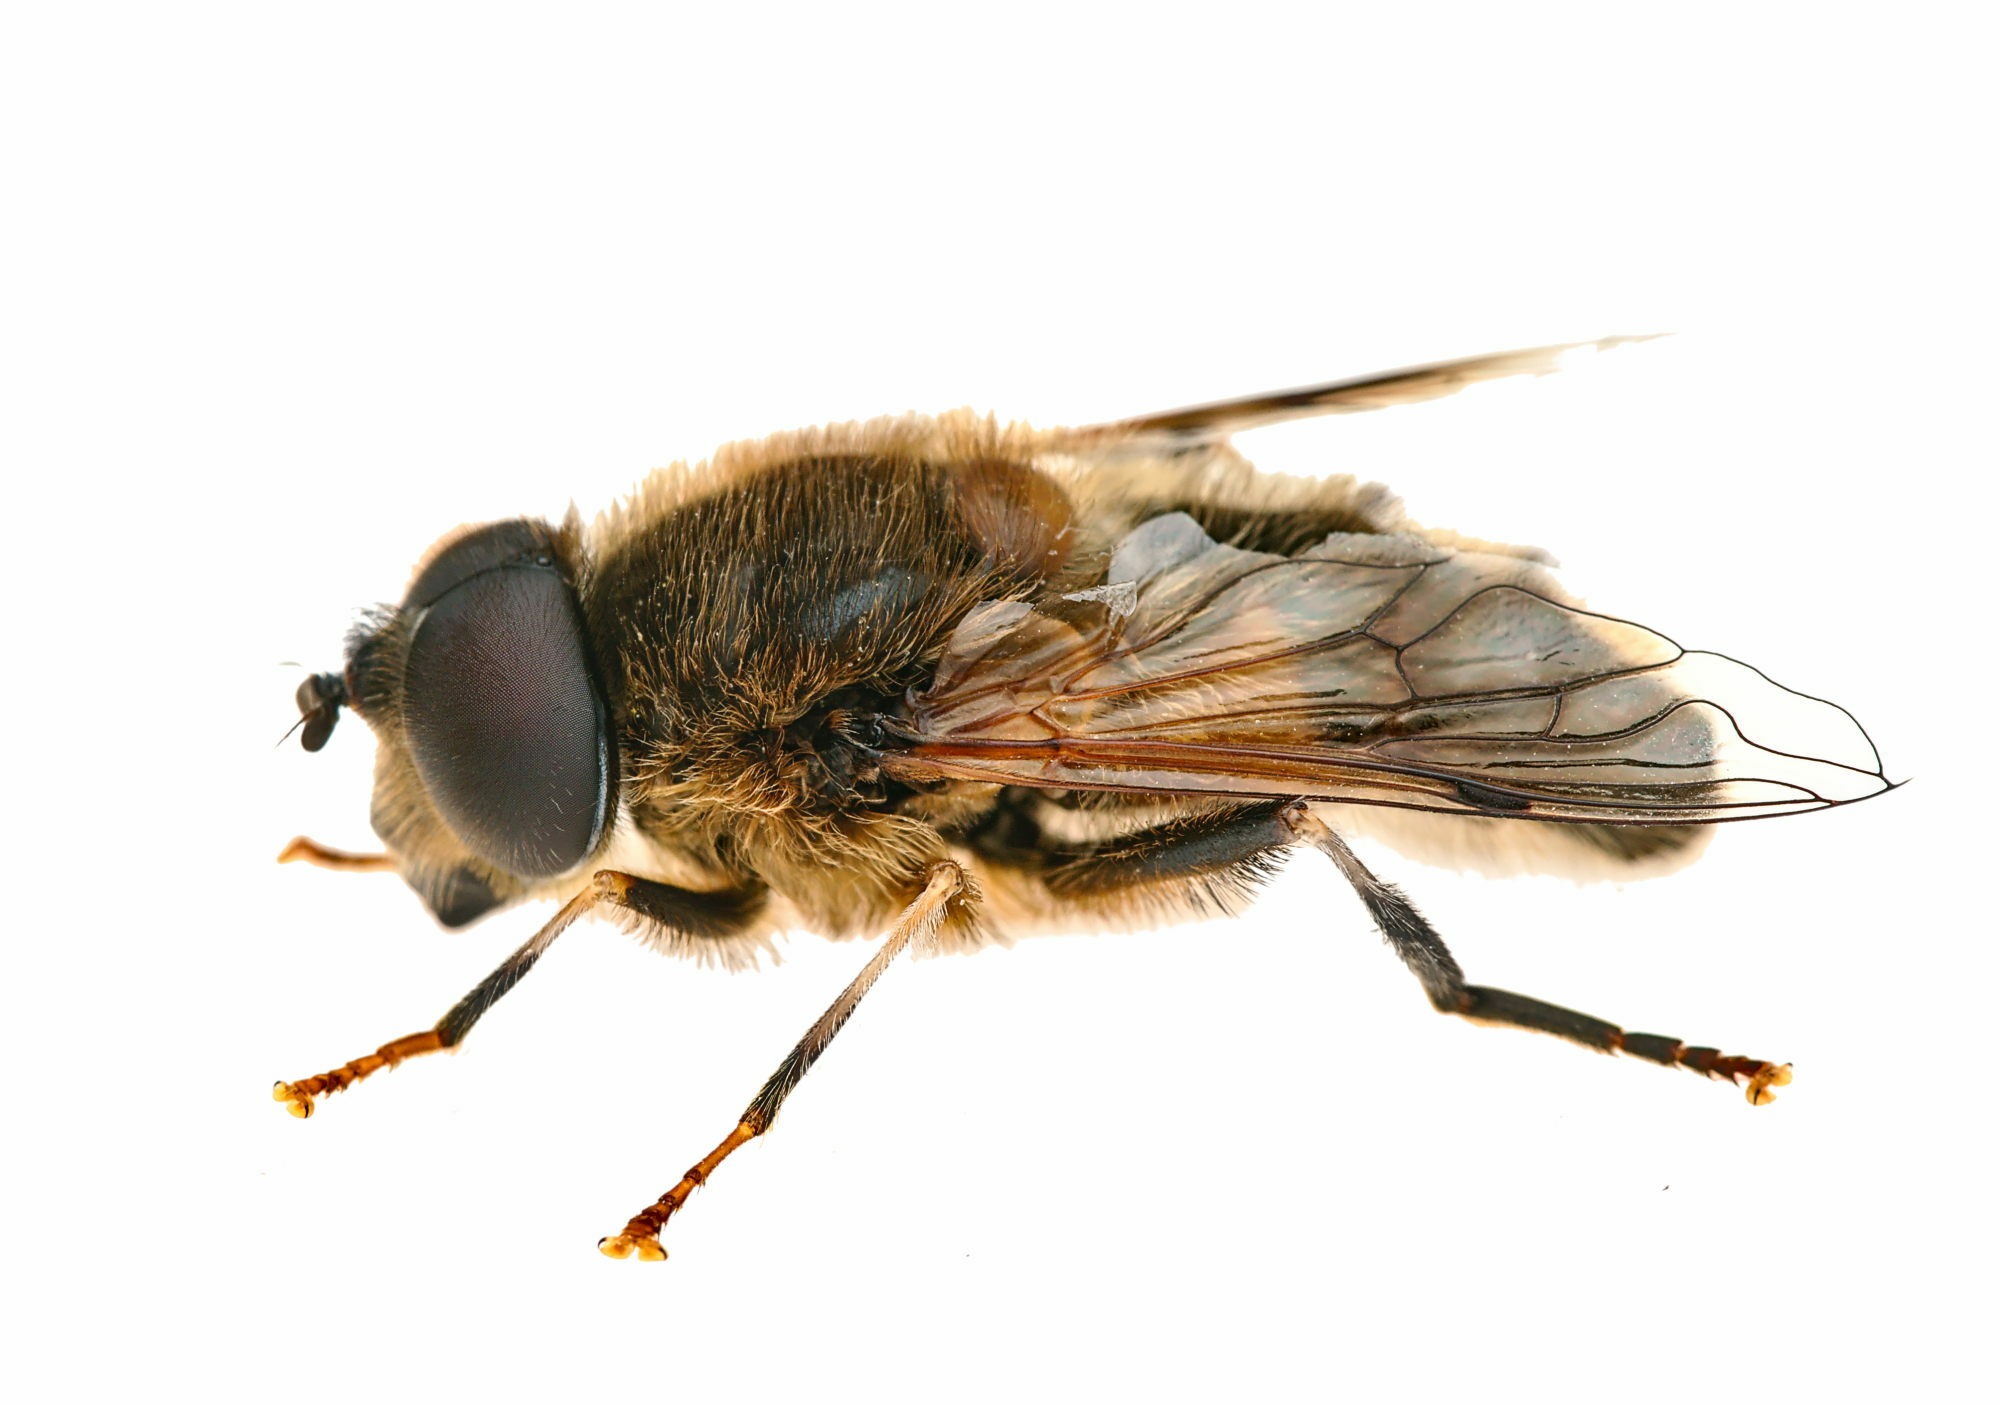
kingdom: Animalia
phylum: Arthropoda
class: Insecta
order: Diptera
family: Syrphidae
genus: Eristalis
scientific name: Eristalis pertinax
